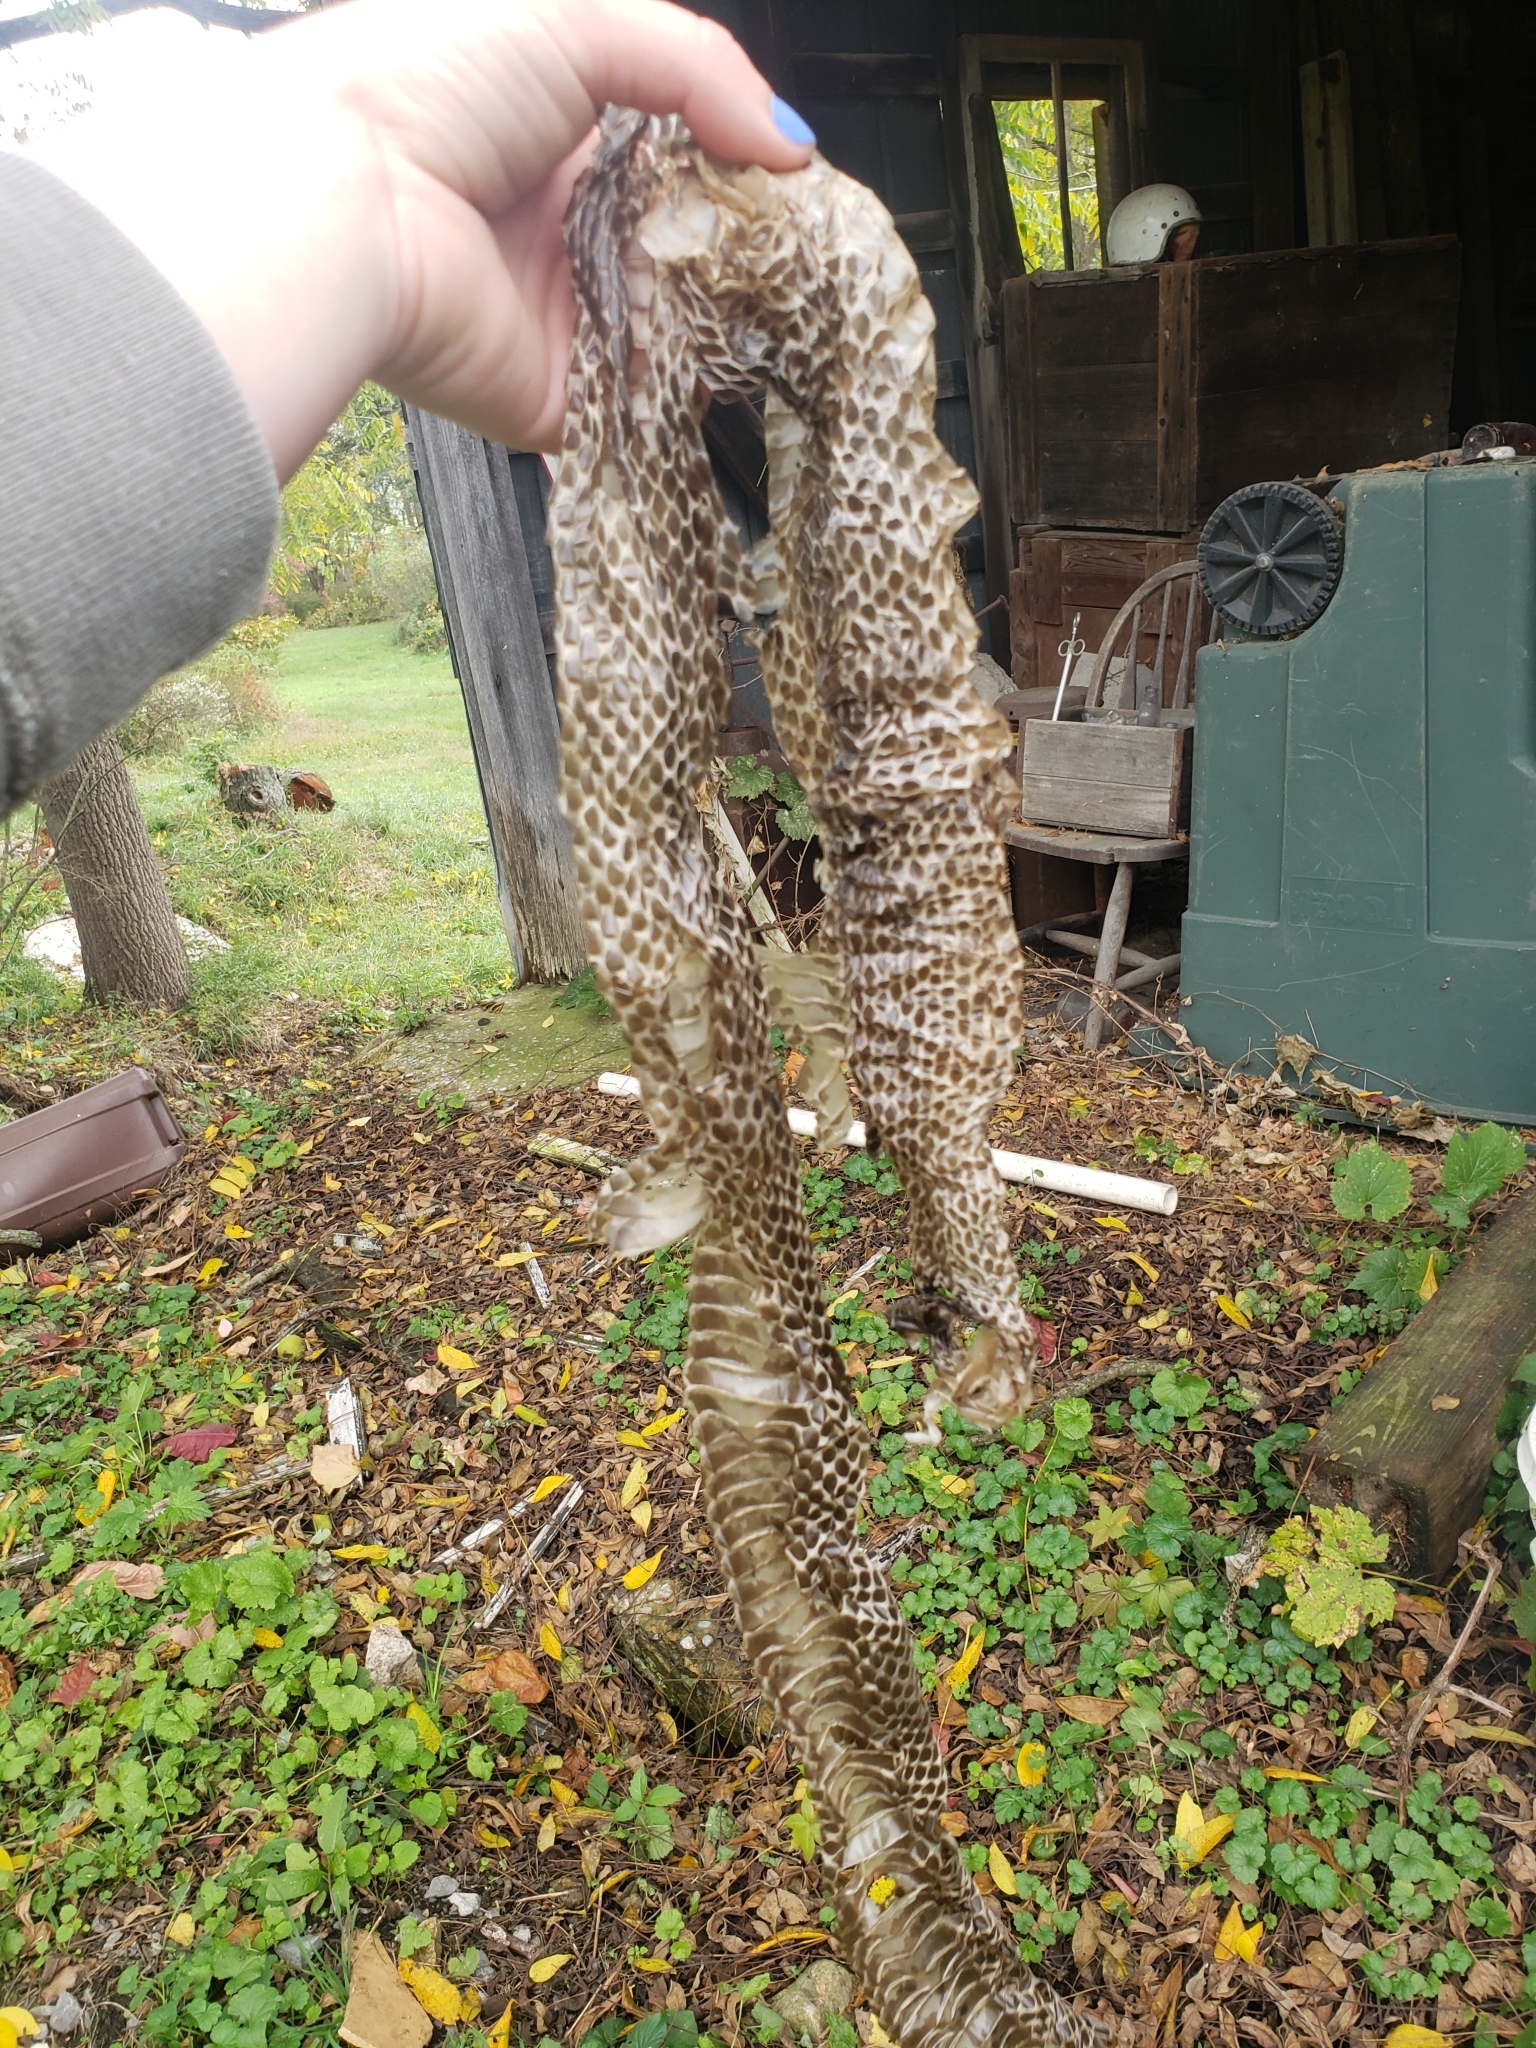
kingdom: Animalia
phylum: Chordata
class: Squamata
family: Colubridae
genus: Pantherophis
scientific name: Pantherophis alleghaniensis
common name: Eastern rat snake
